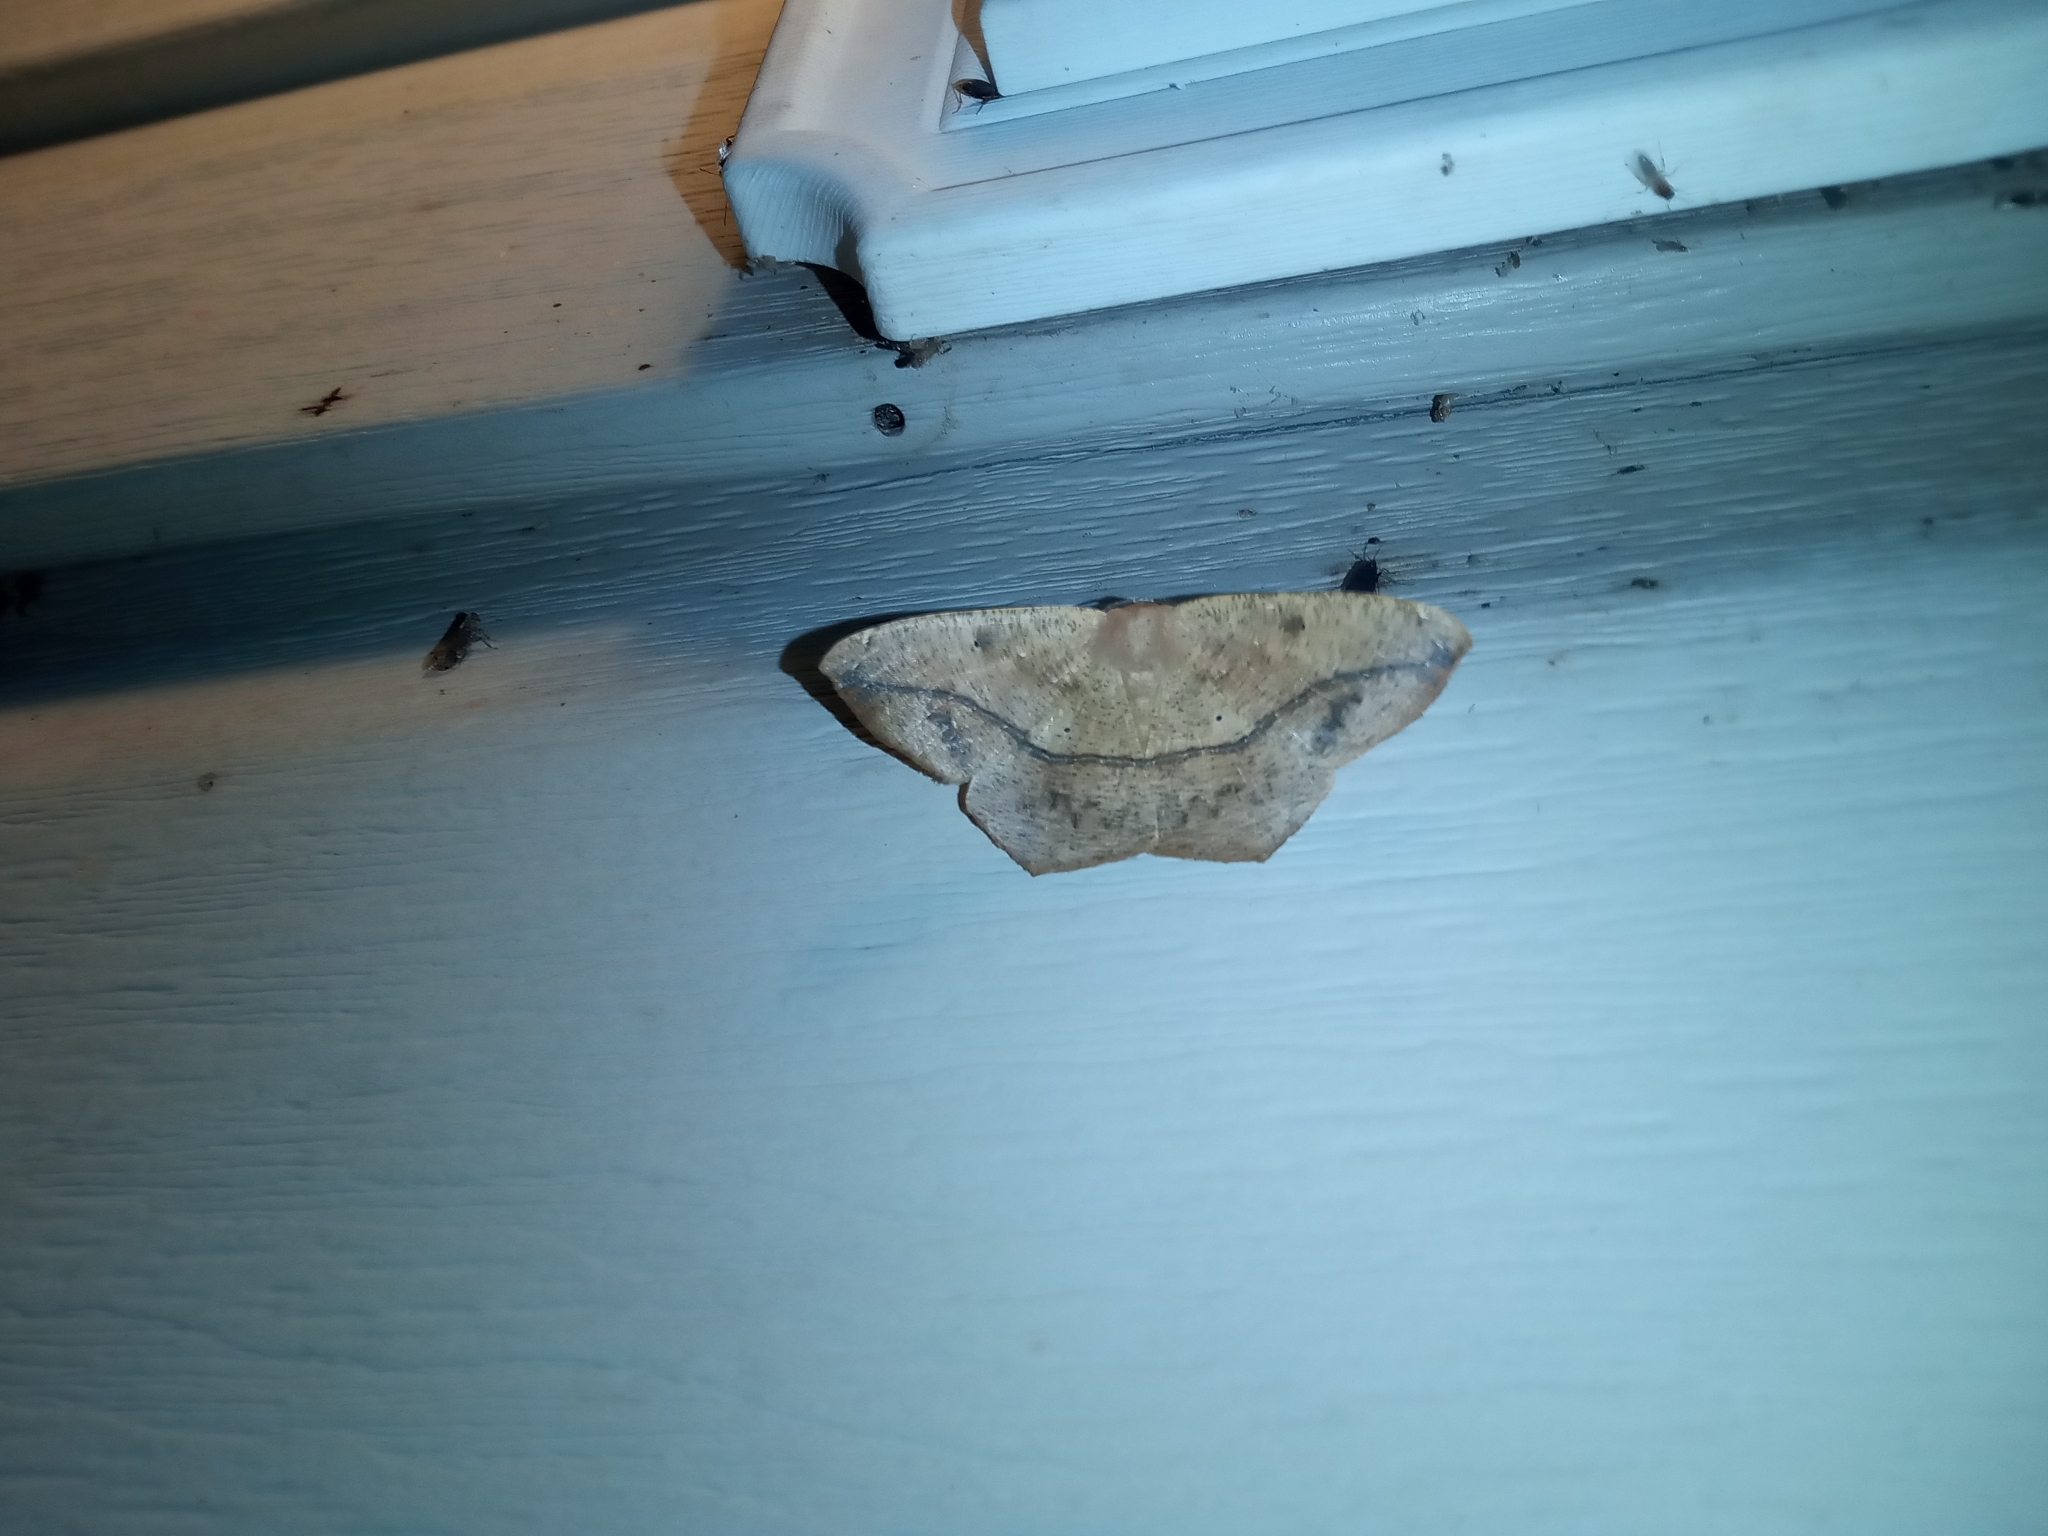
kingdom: Animalia
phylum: Arthropoda
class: Insecta
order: Lepidoptera
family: Geometridae
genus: Prochoerodes
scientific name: Prochoerodes lineola
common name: Large maple spanworm
